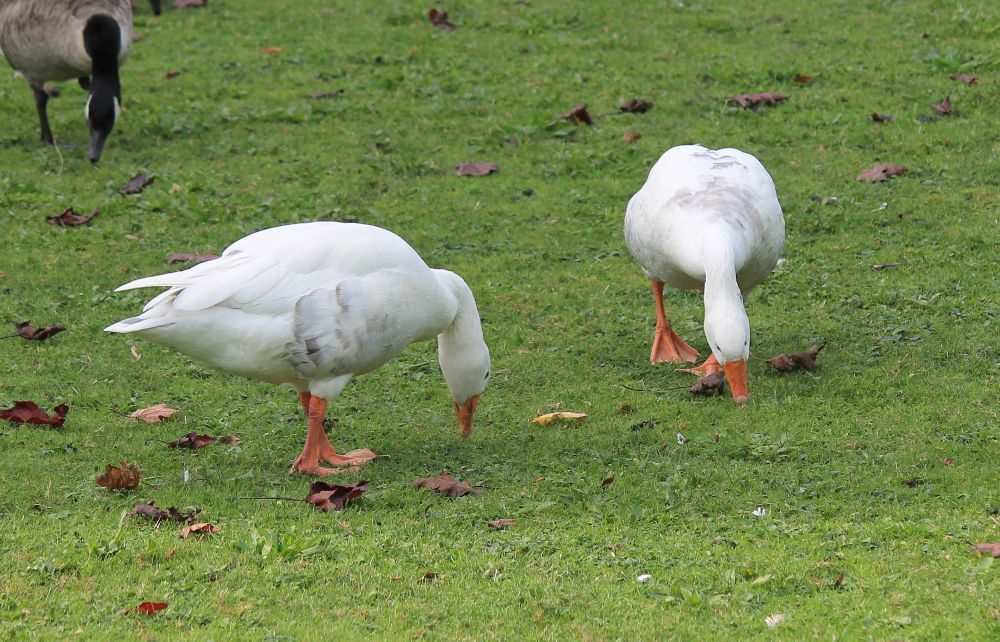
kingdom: Animalia
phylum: Chordata
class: Aves
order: Anseriformes
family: Anatidae
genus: Anser
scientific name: Anser anser
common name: Greylag goose
